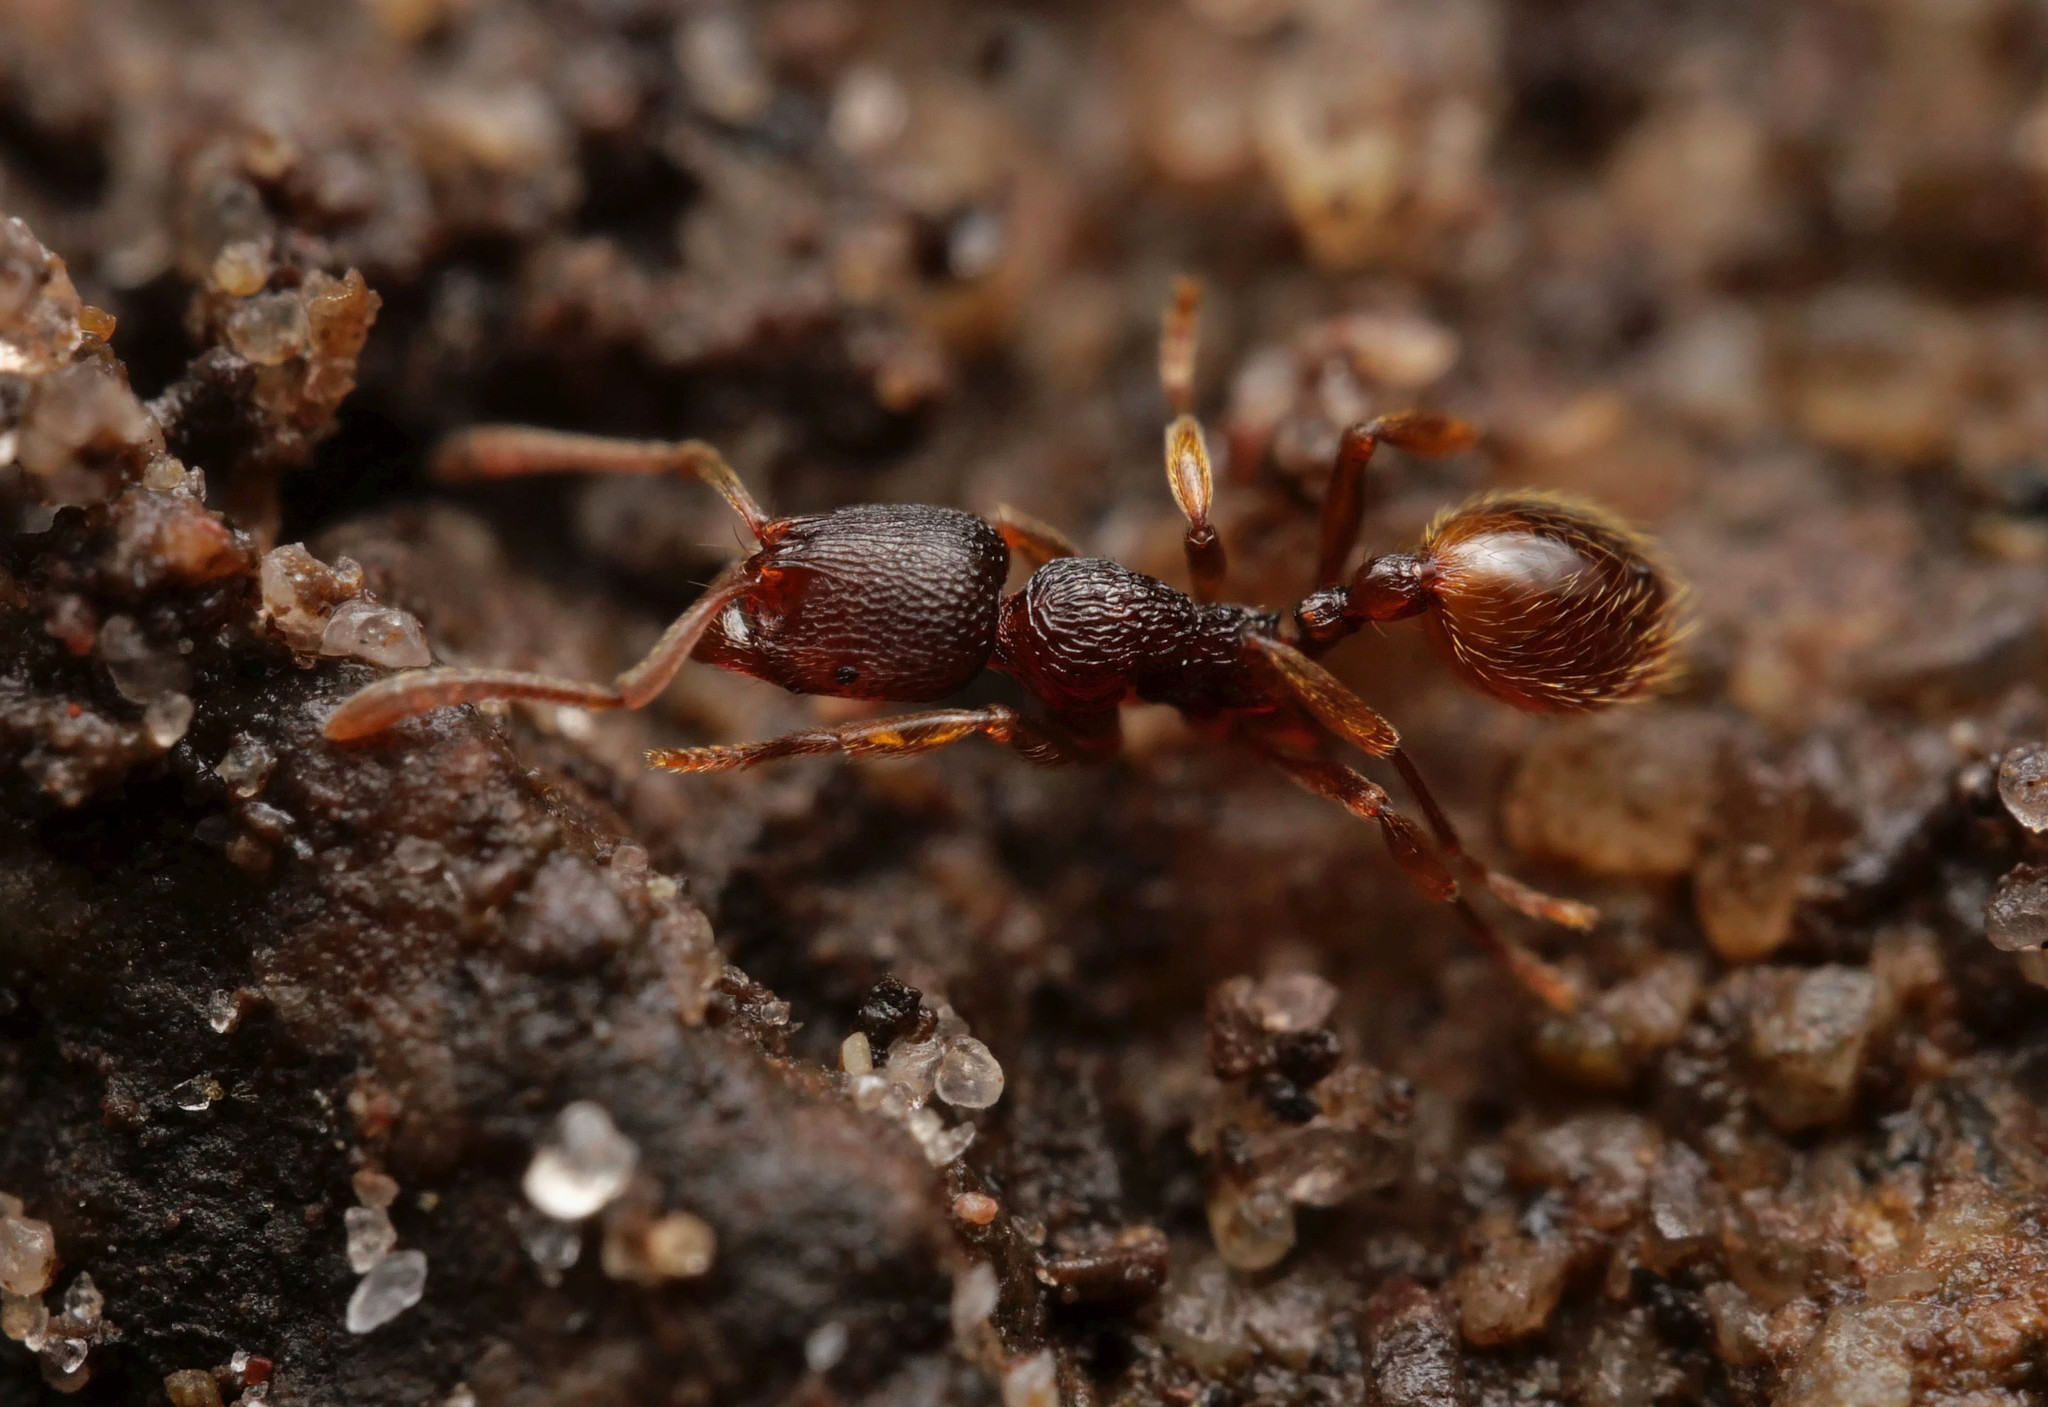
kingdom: Animalia
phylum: Arthropoda
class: Insecta
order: Hymenoptera
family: Formicidae
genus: Stenamma
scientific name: Stenamma debile
